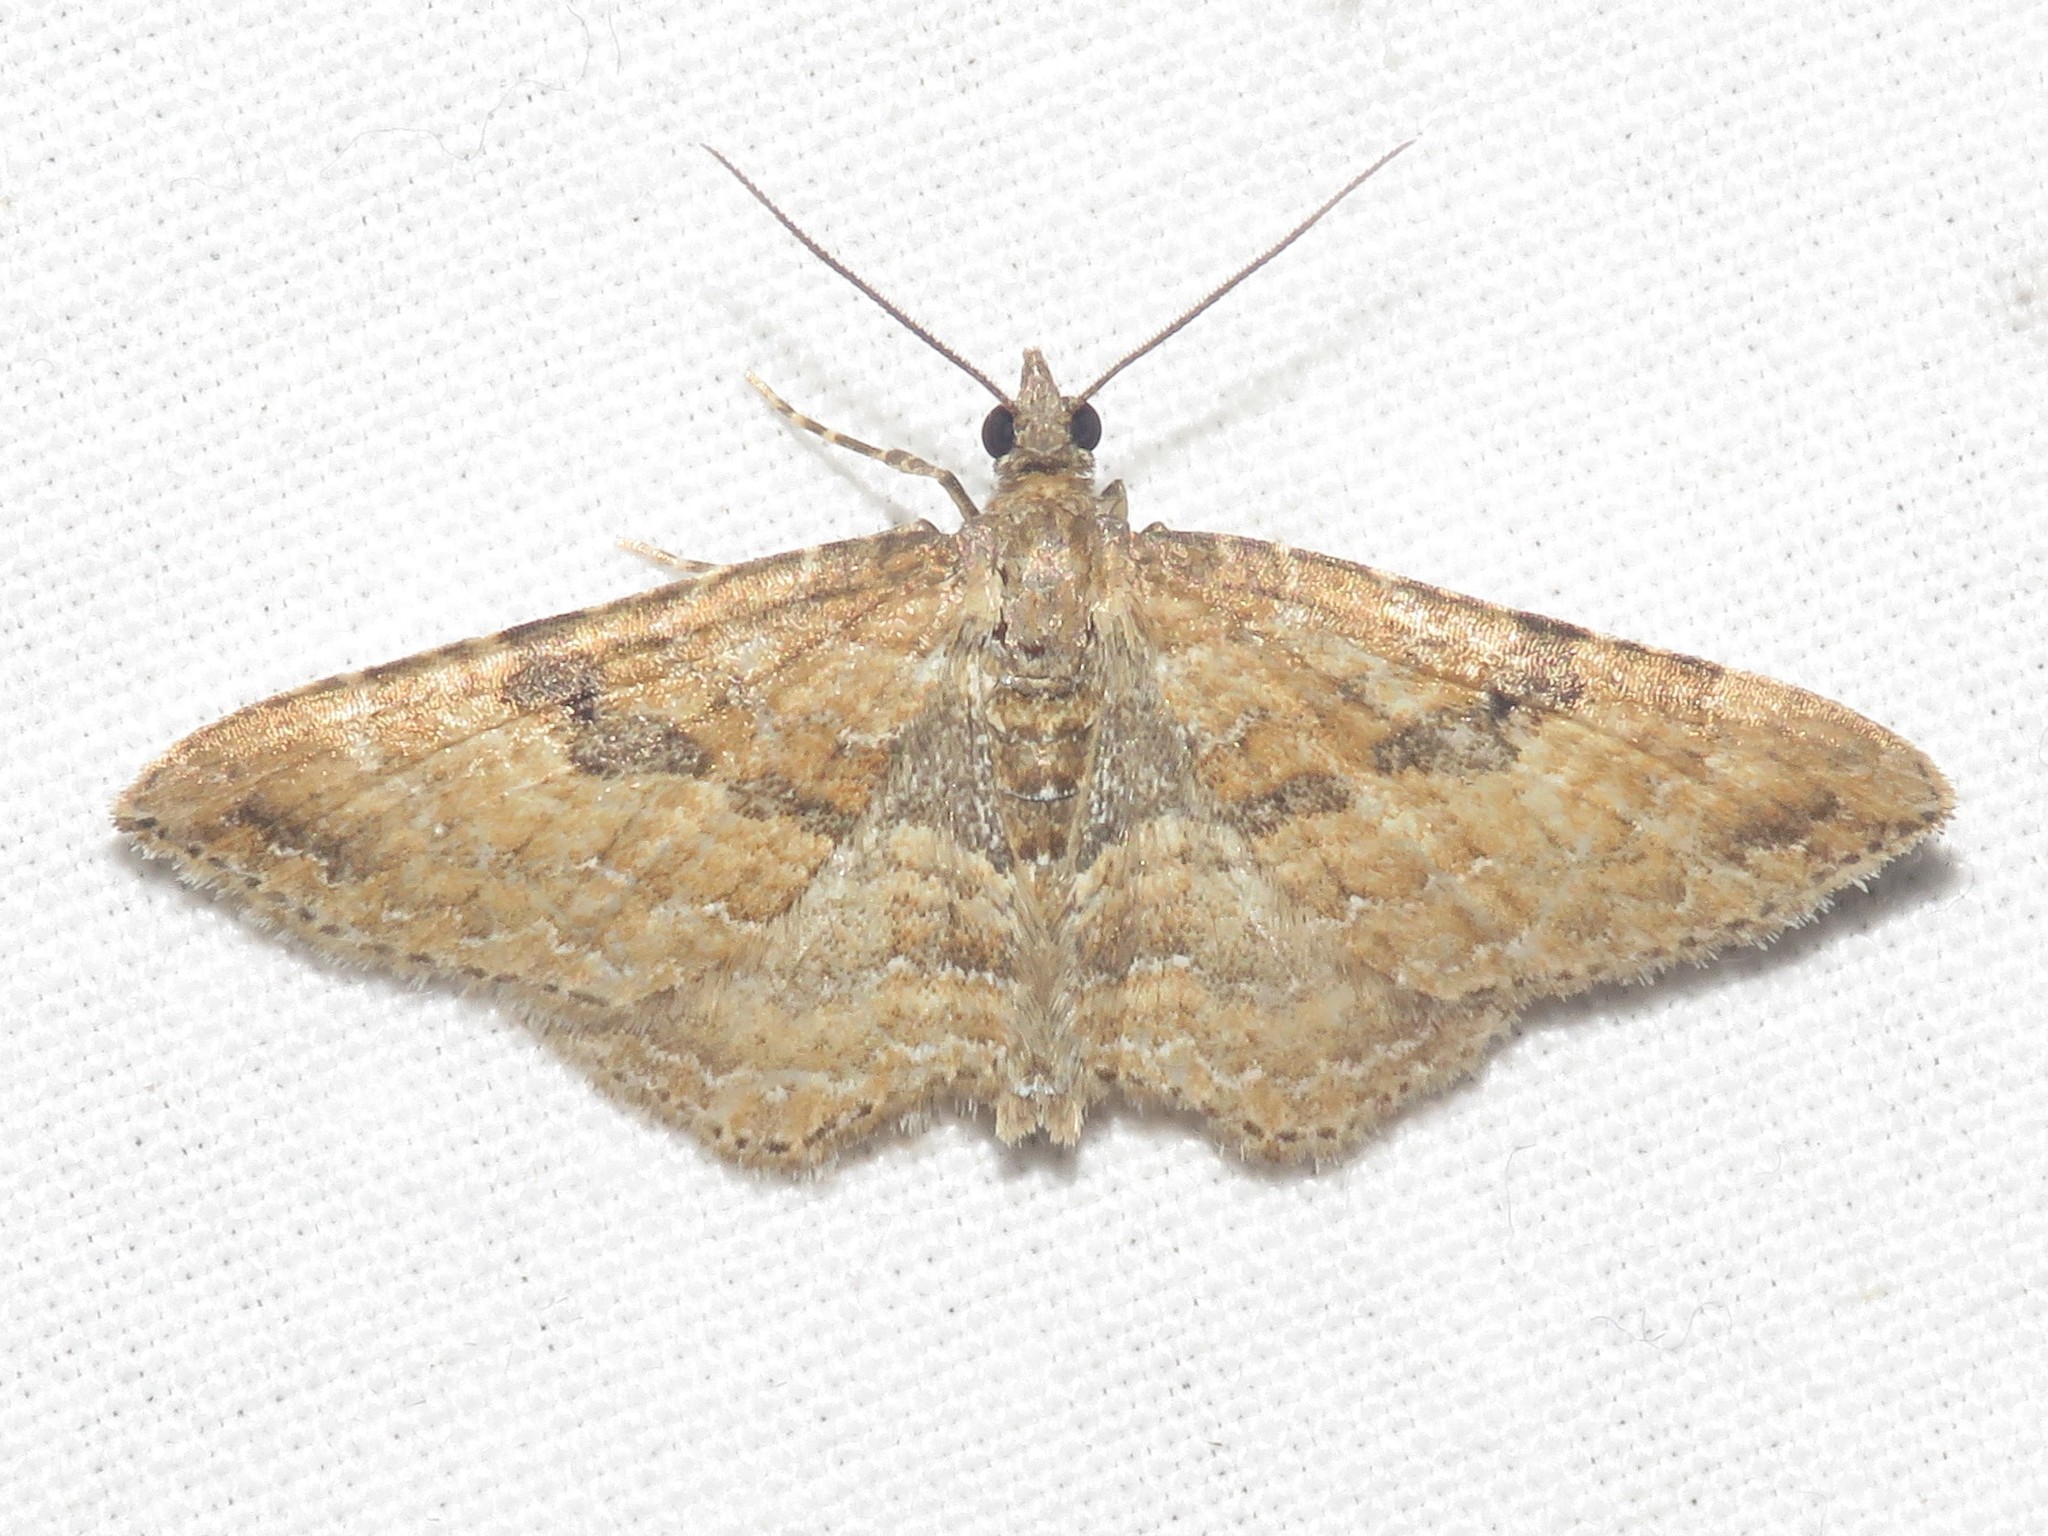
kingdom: Animalia
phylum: Arthropoda
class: Insecta
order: Lepidoptera
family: Geometridae
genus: Orthonama
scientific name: Orthonama obstipata
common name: The gem
